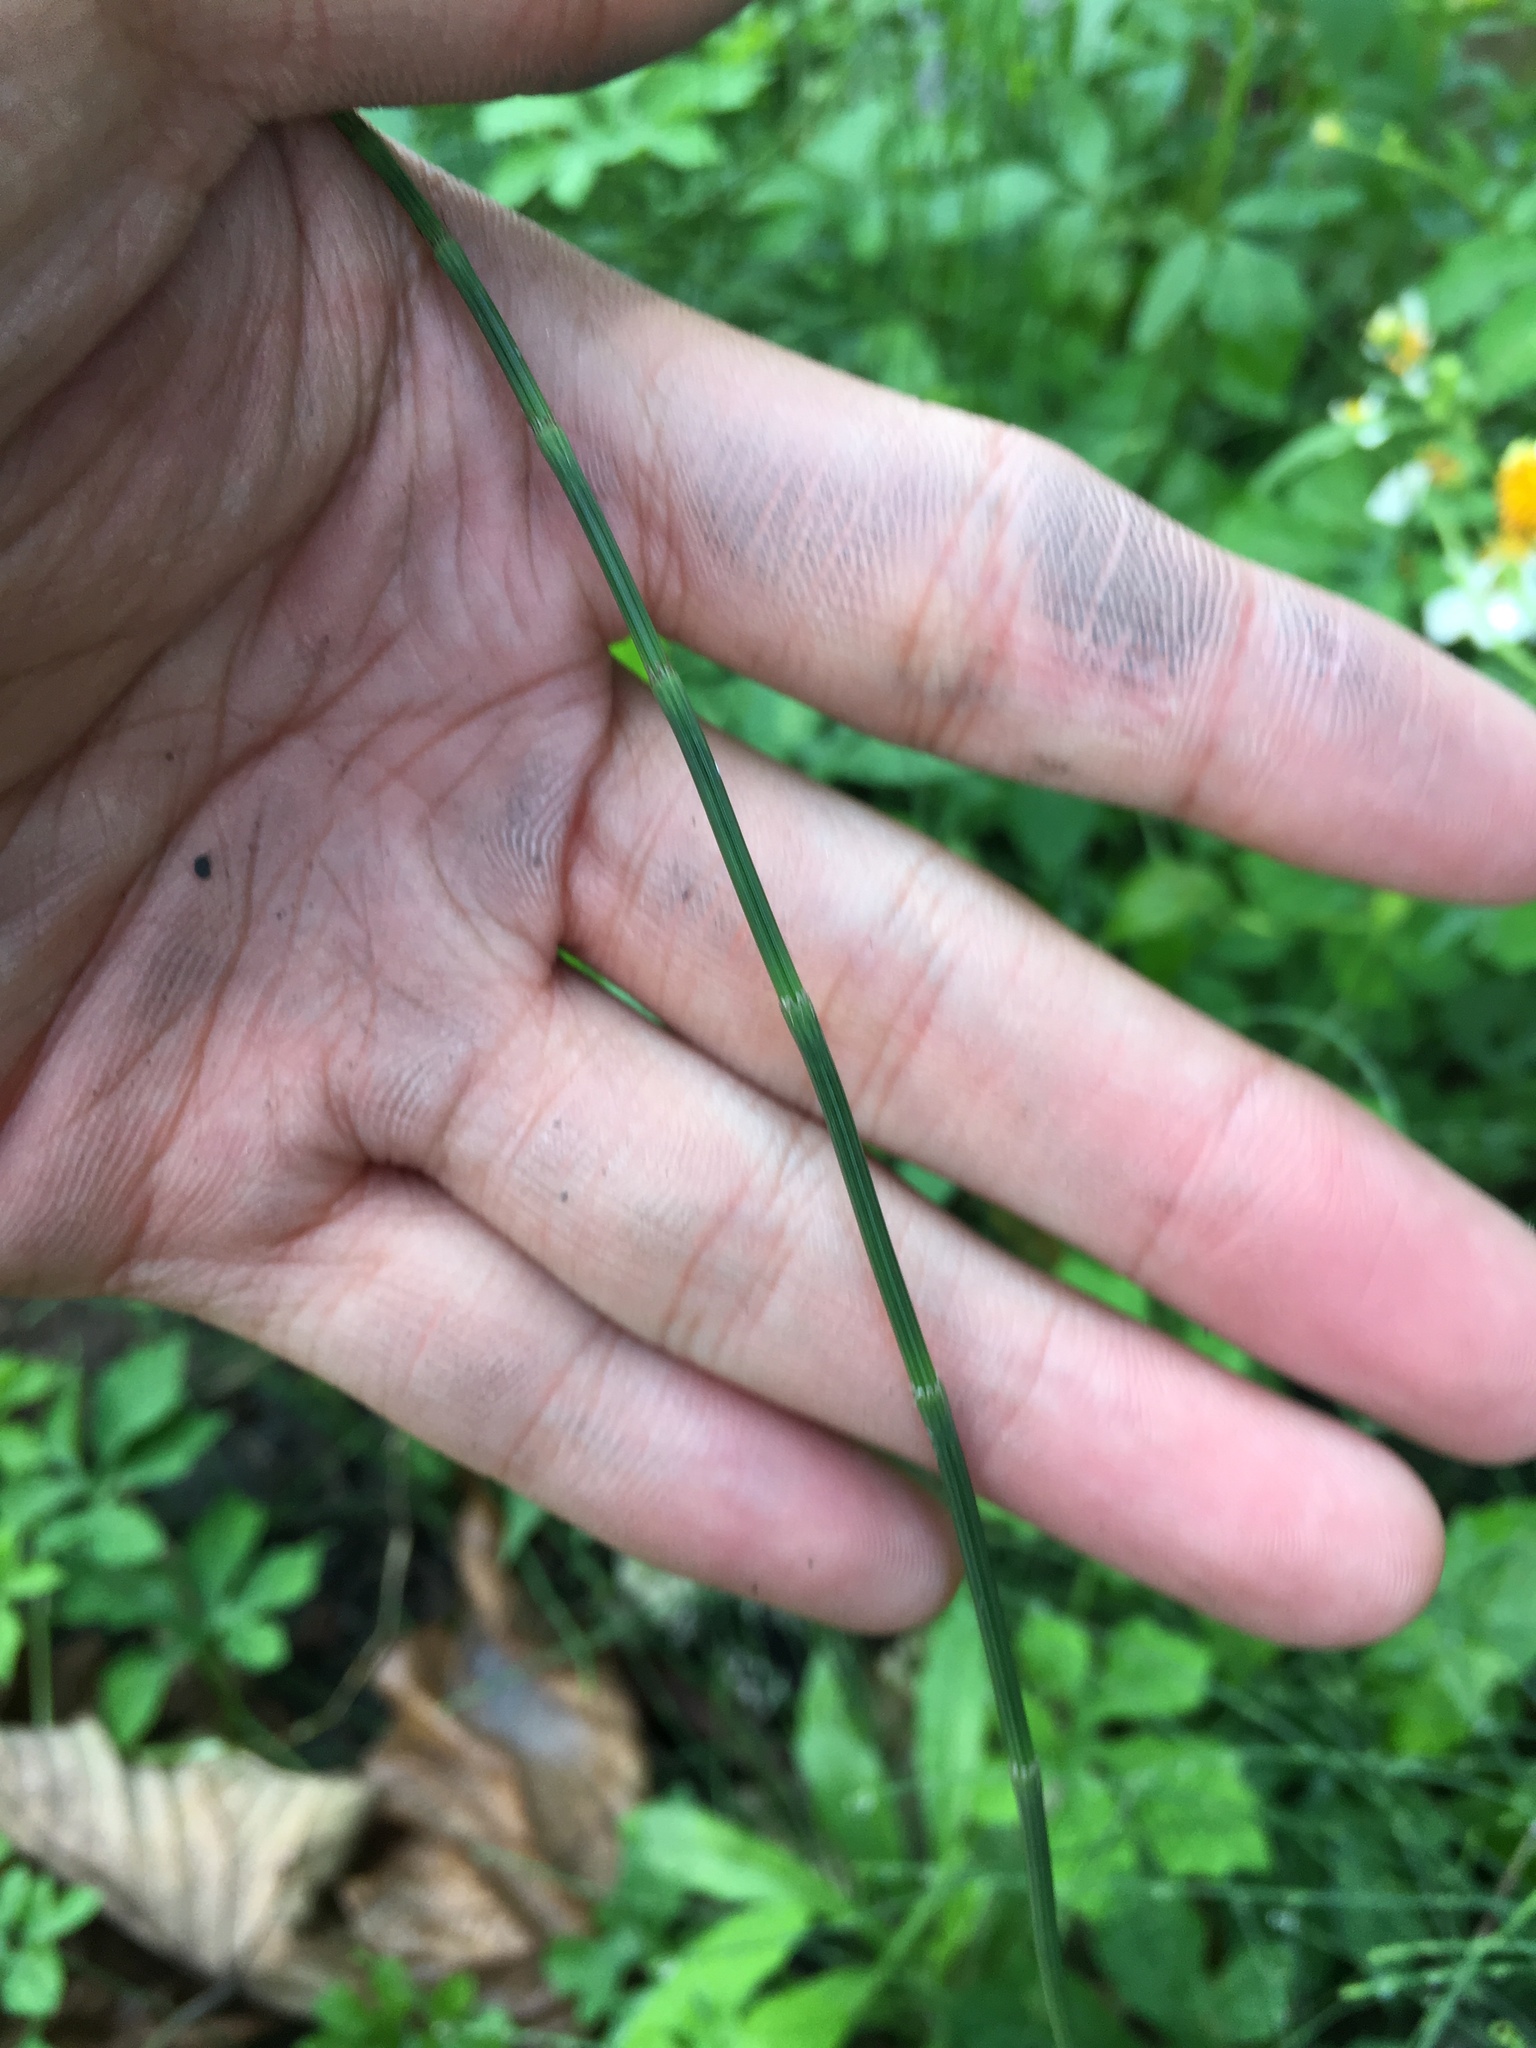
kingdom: Plantae
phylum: Tracheophyta
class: Polypodiopsida
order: Equisetales
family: Equisetaceae
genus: Equisetum
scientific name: Equisetum ramosissimum
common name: Branched horsetail
